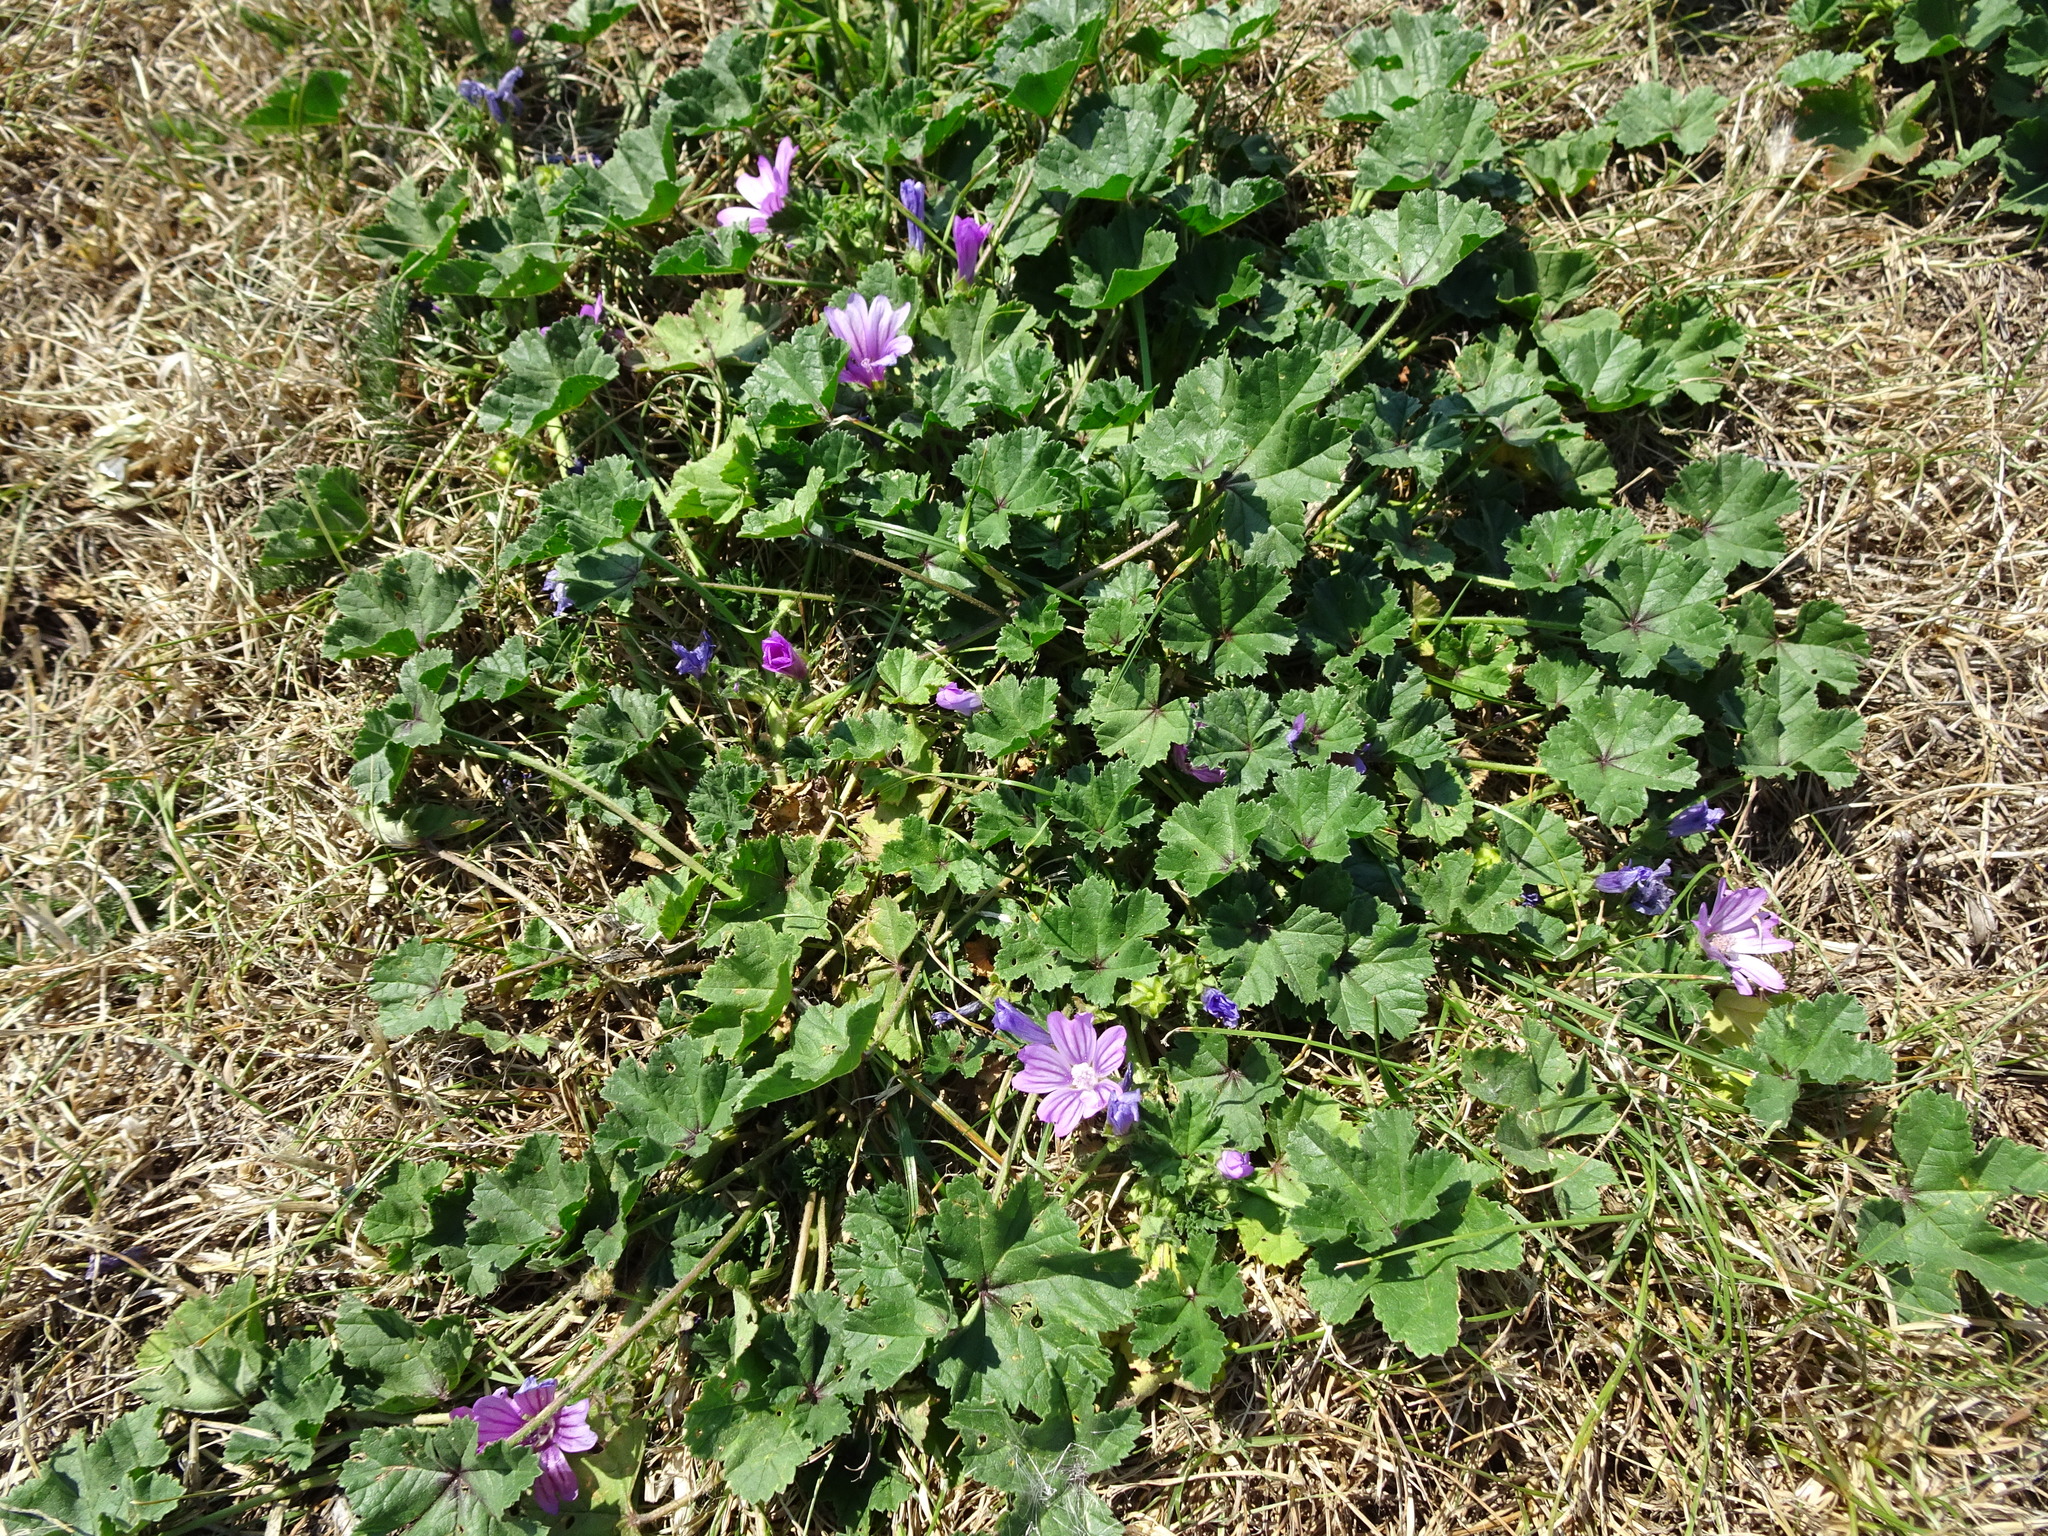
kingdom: Plantae
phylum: Tracheophyta
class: Magnoliopsida
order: Malvales
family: Malvaceae
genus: Malva
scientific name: Malva sylvestris
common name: Common mallow
